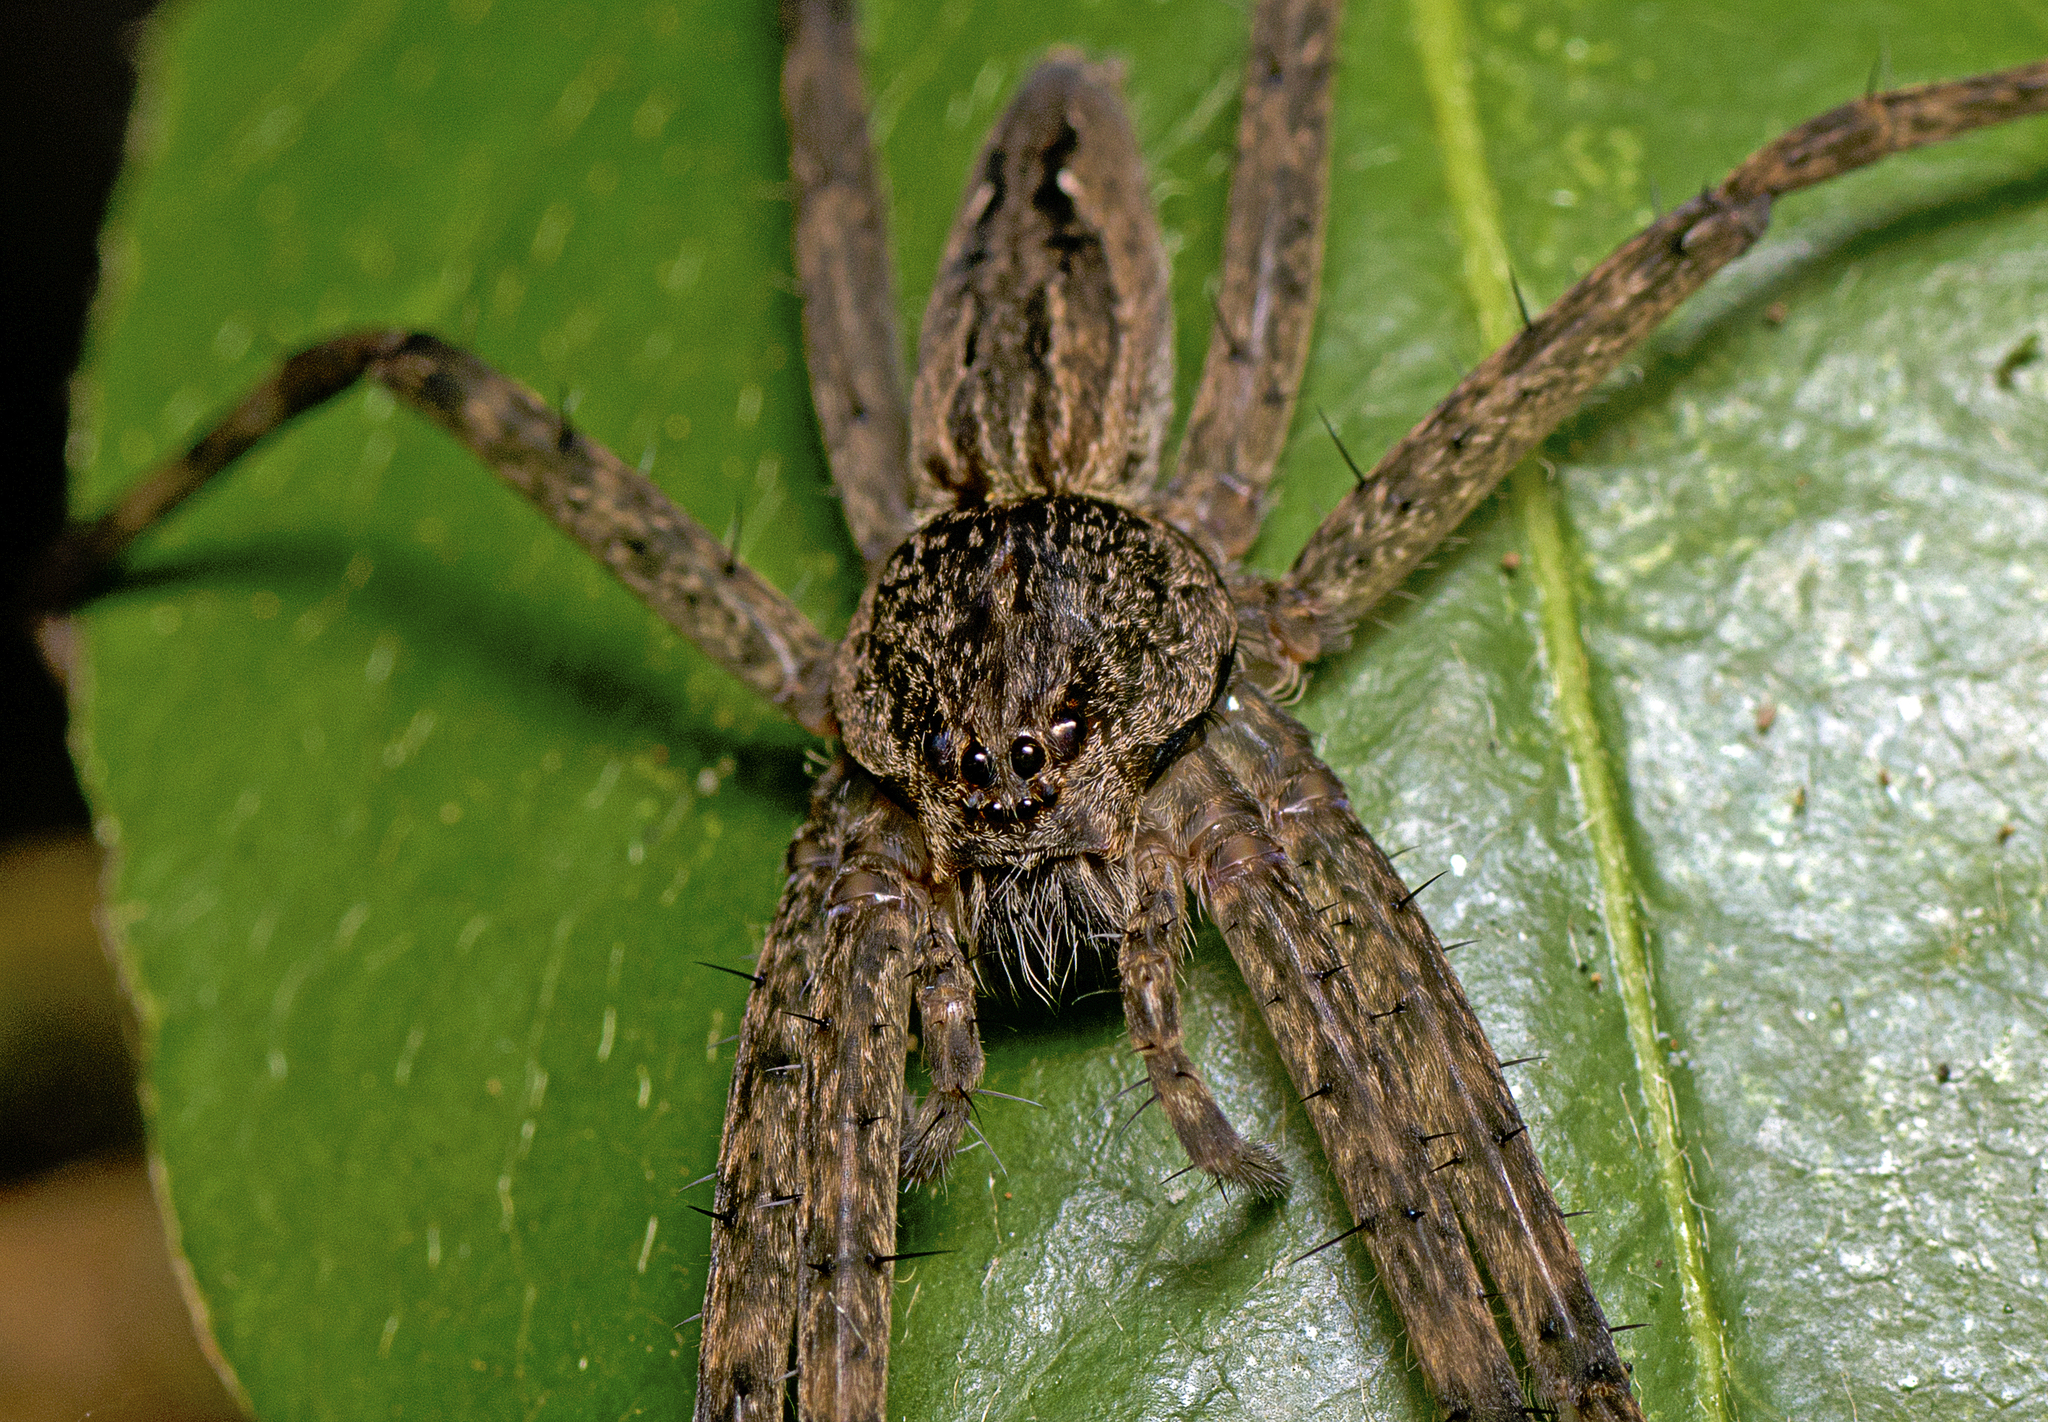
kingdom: Animalia
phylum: Arthropoda
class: Arachnida
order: Araneae
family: Pisauridae
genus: Megadolomedes
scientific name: Megadolomedes trux
